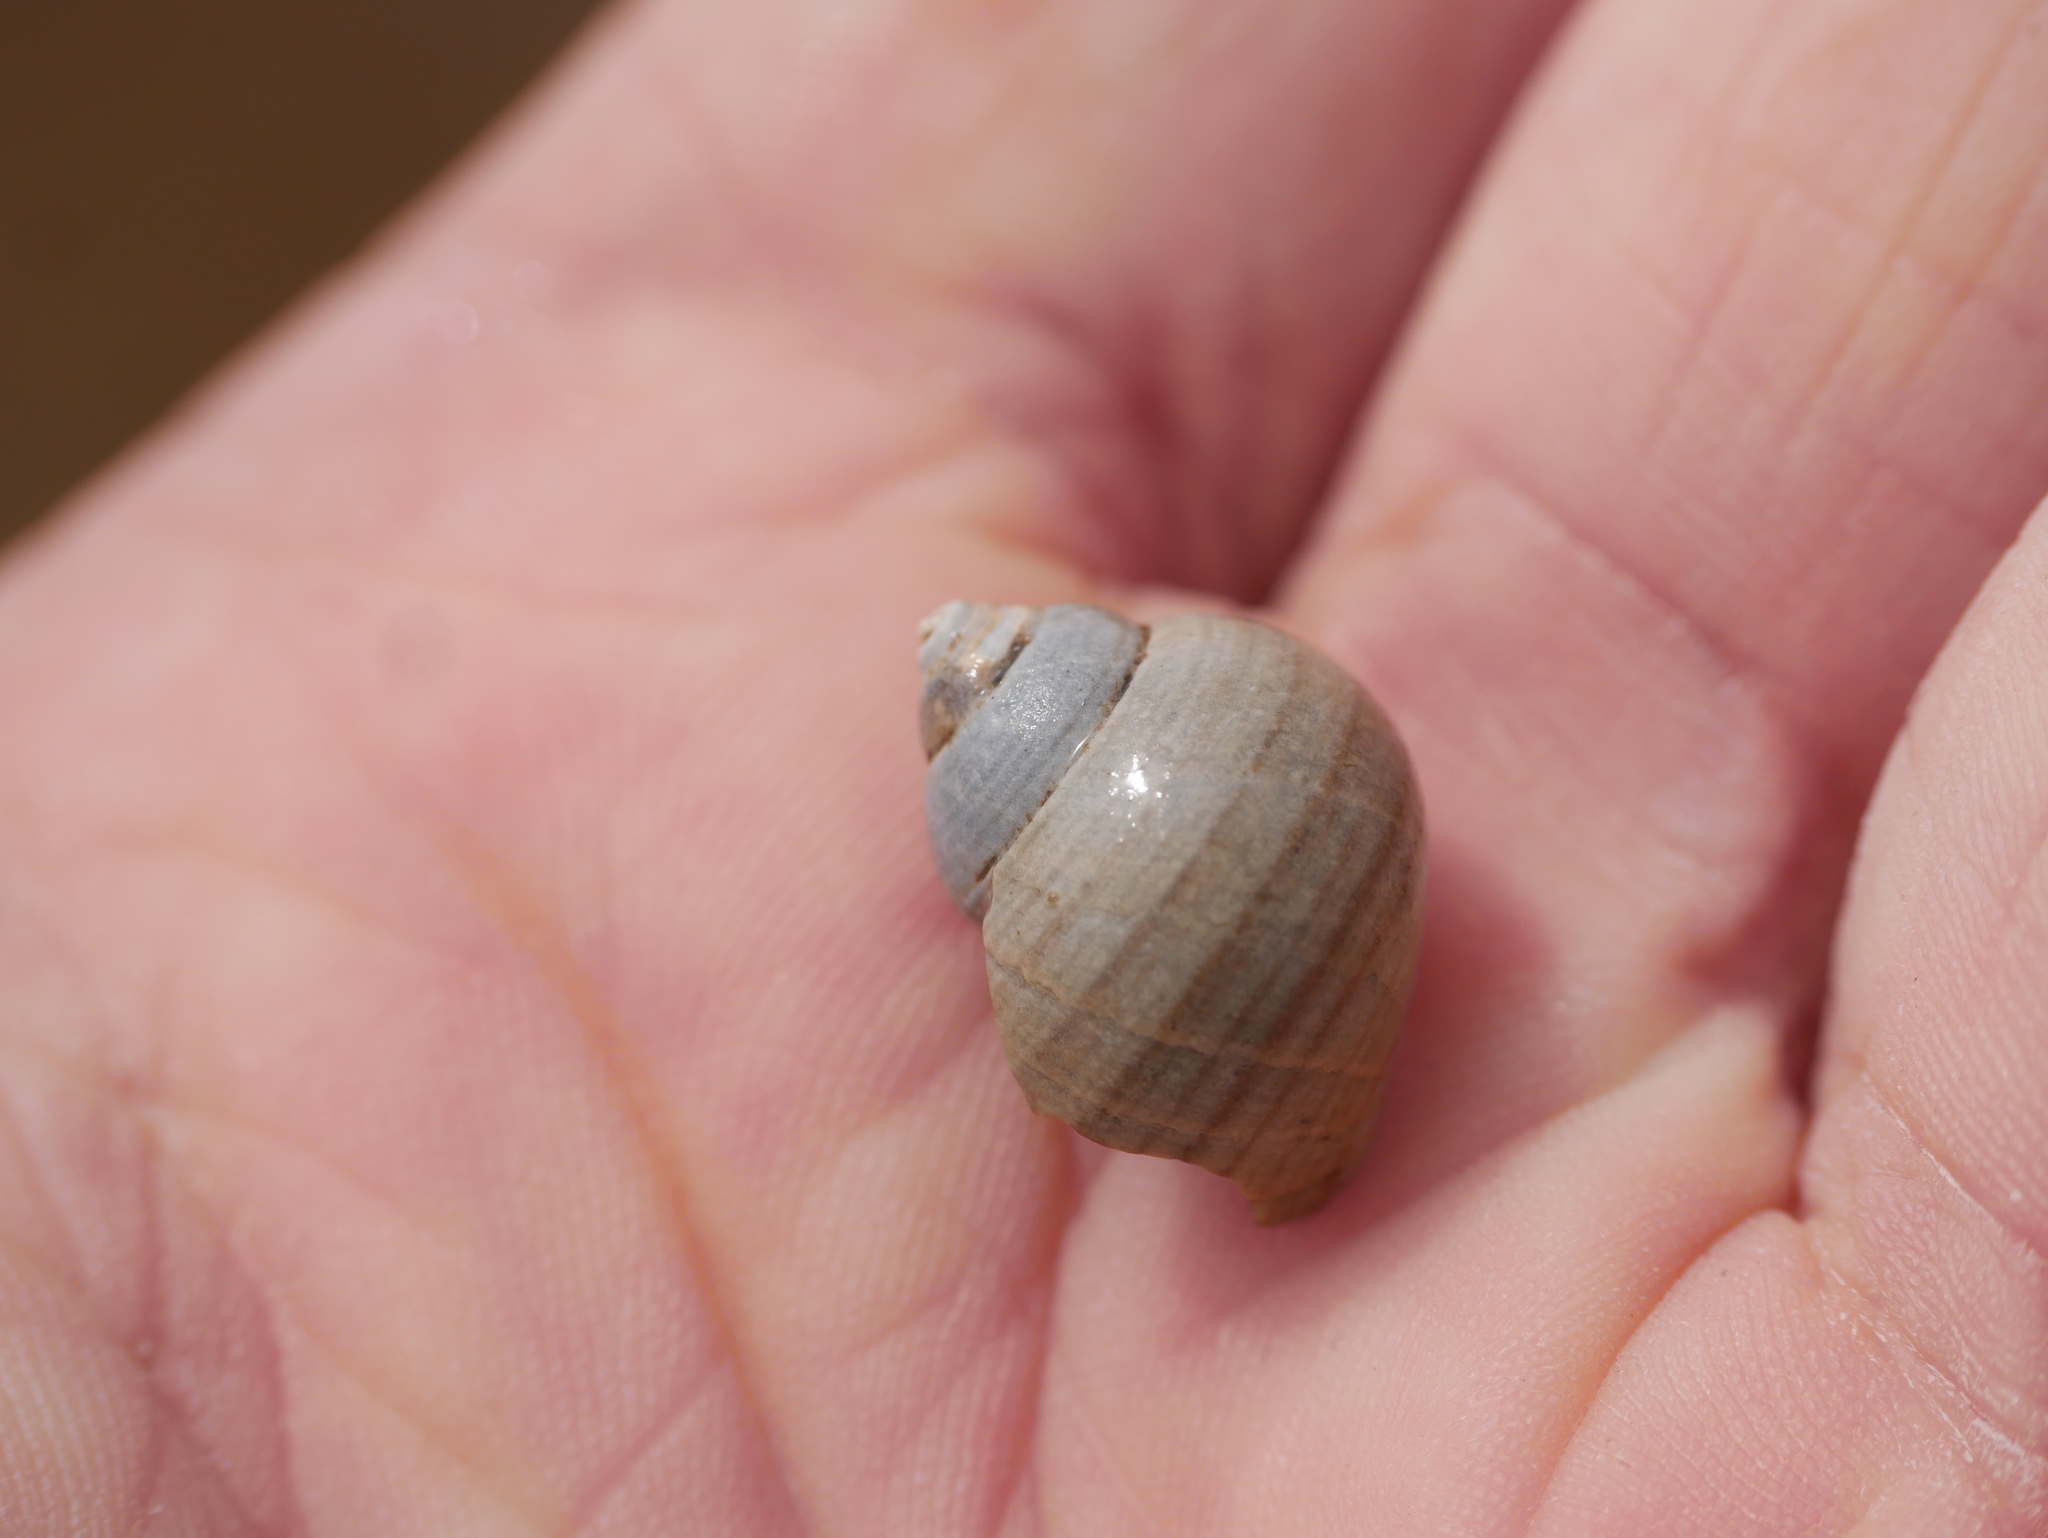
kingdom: Animalia
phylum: Mollusca
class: Gastropoda
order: Littorinimorpha
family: Littorinidae
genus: Littorina
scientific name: Littorina littorea
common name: Common periwinkle
